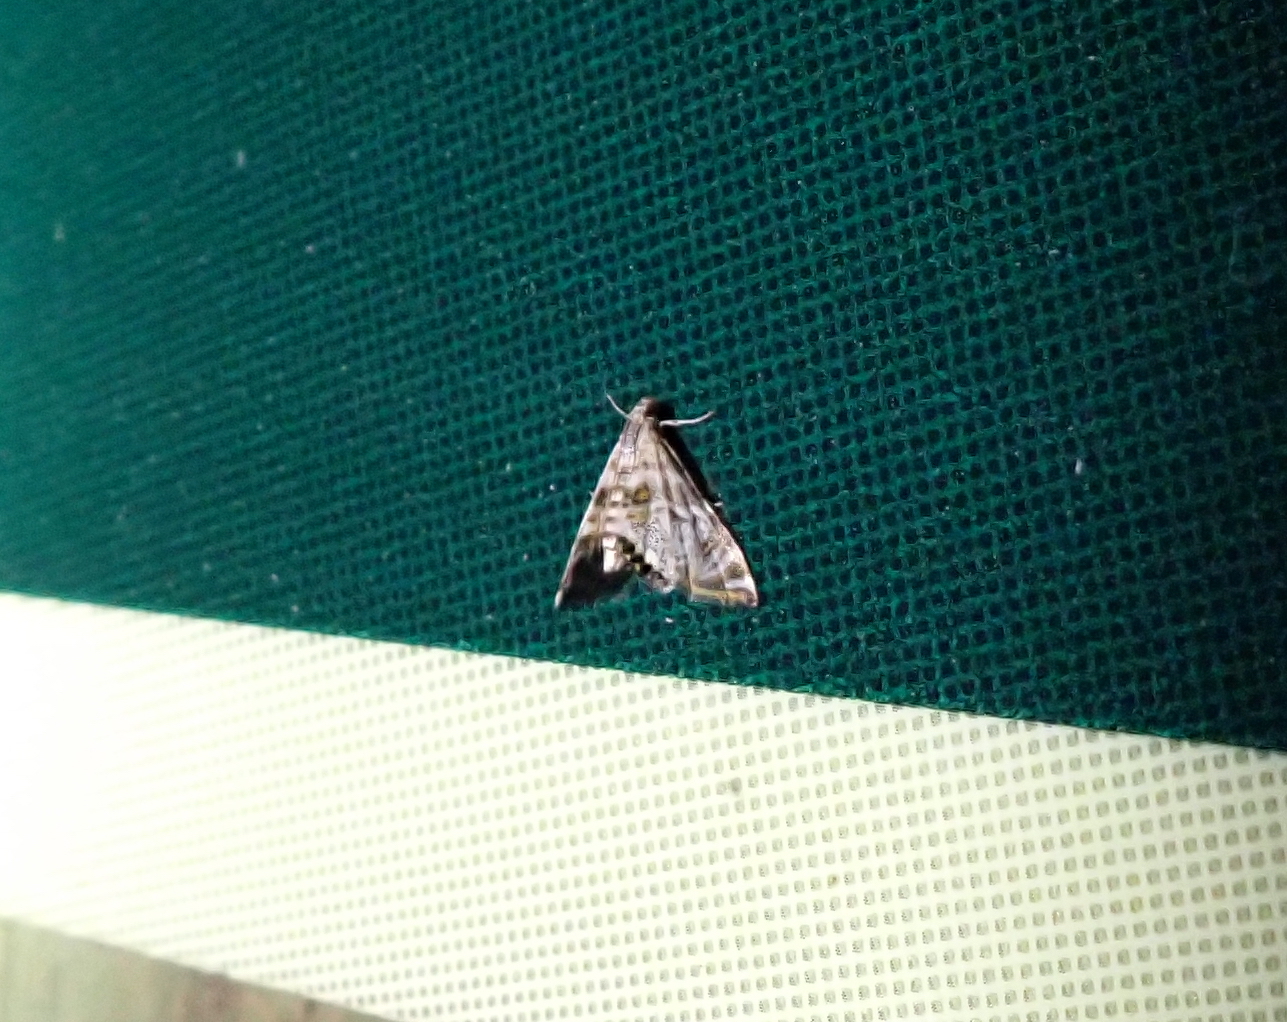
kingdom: Animalia
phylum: Arthropoda
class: Insecta
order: Lepidoptera
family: Crambidae
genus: Petrophila
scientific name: Petrophila santafealis
